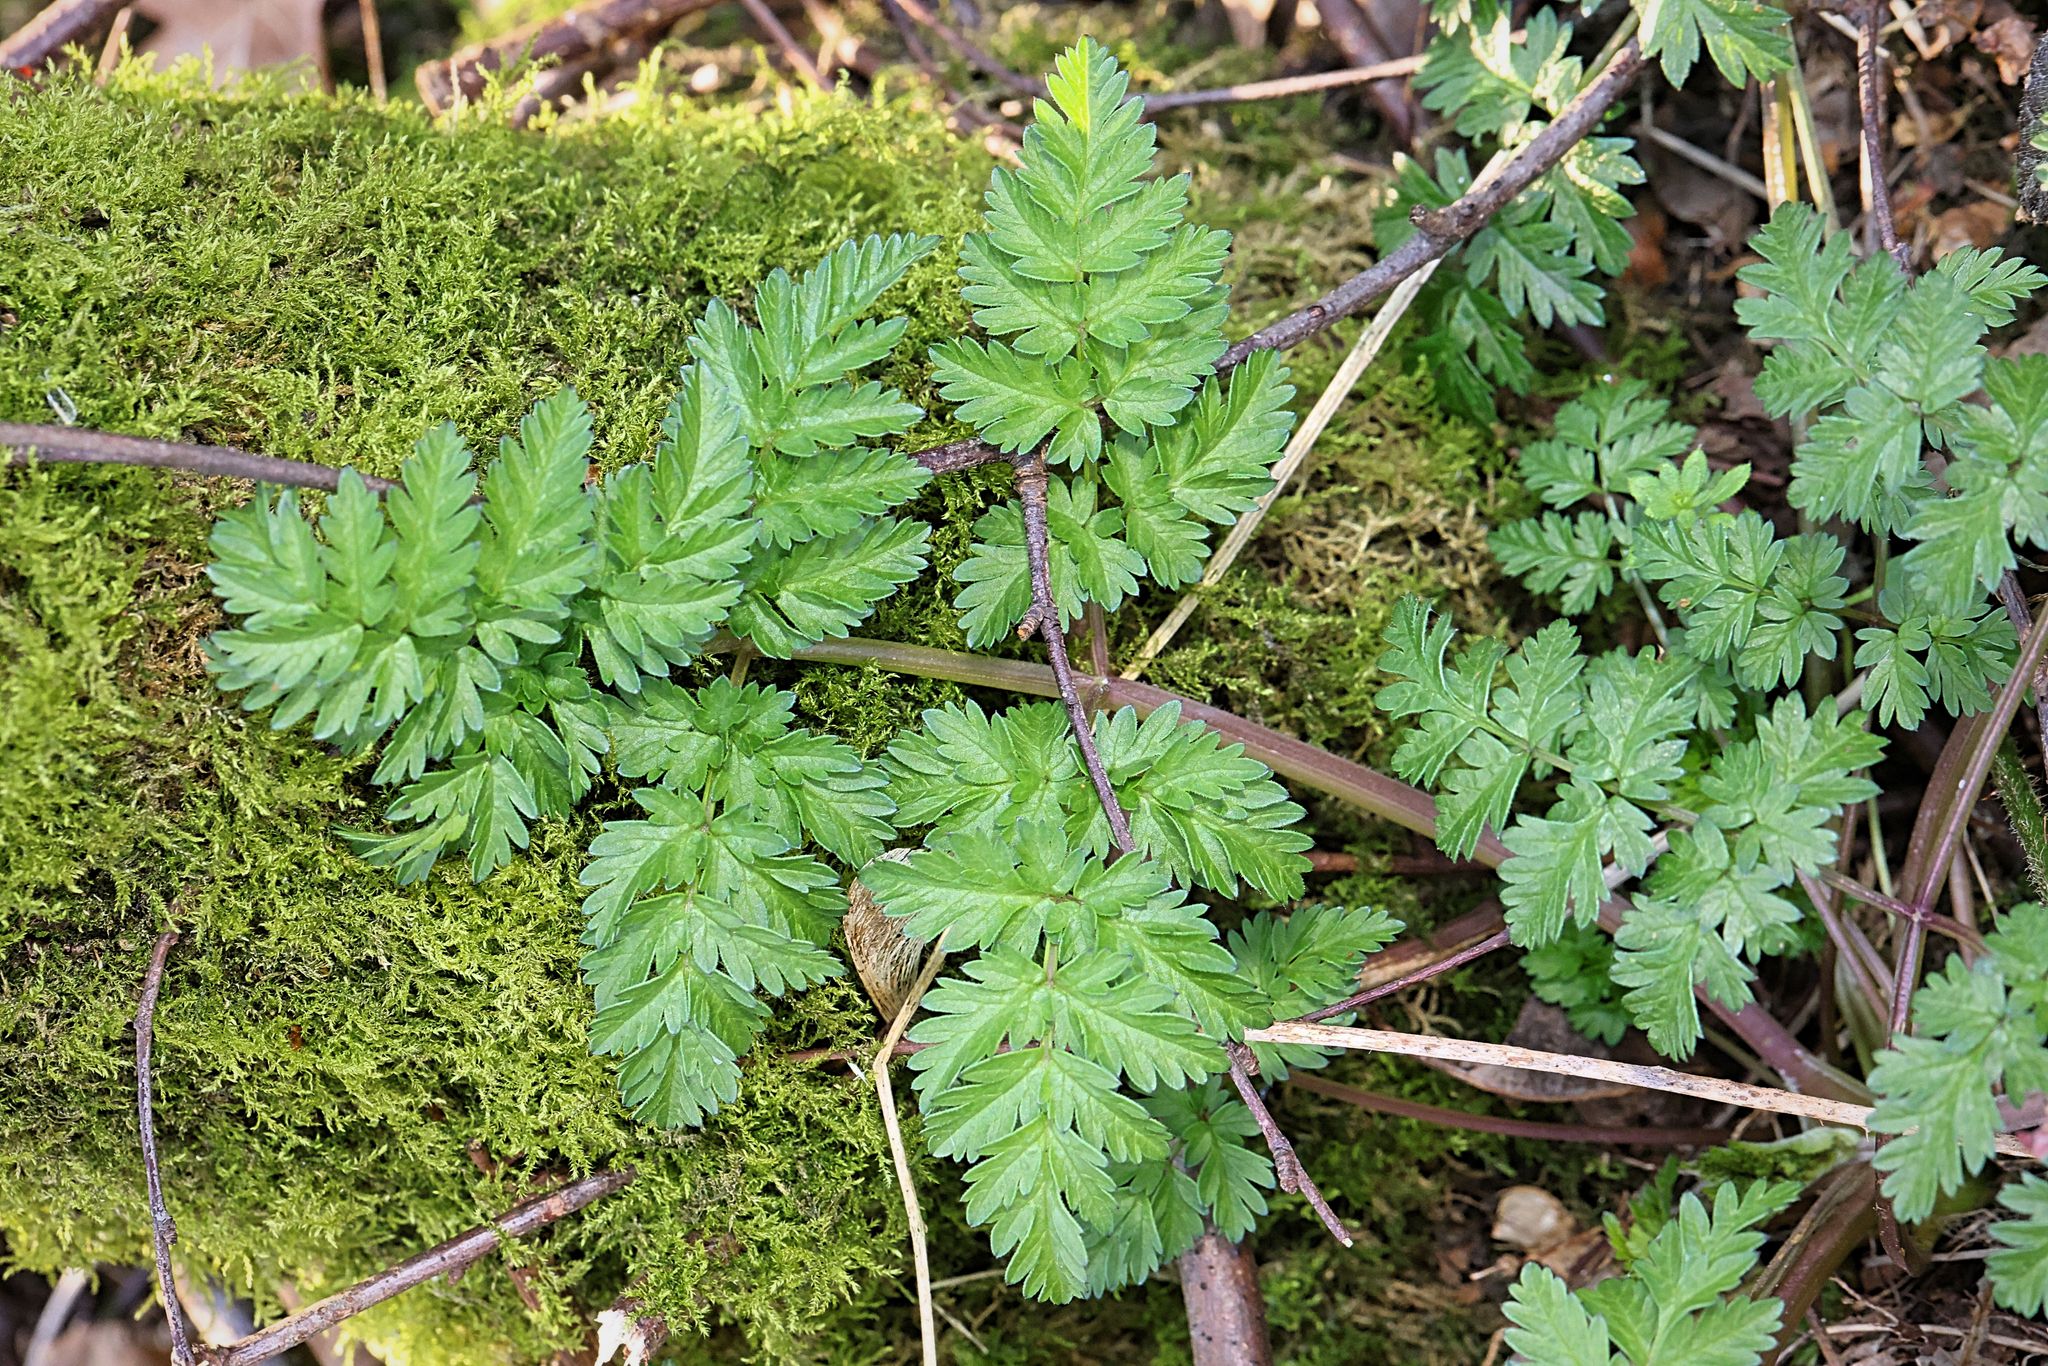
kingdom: Plantae
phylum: Tracheophyta
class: Magnoliopsida
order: Apiales
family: Apiaceae
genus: Anthriscus
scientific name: Anthriscus sylvestris
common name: Cow parsley
